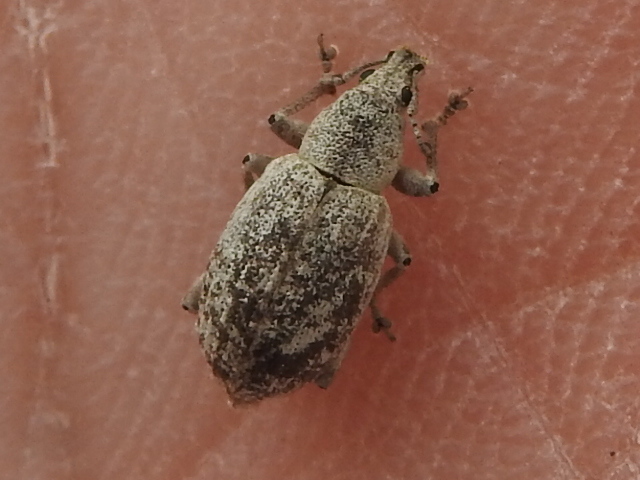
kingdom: Animalia
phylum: Arthropoda
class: Insecta
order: Coleoptera
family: Curculionidae
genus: Achrastenus
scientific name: Achrastenus griseus
